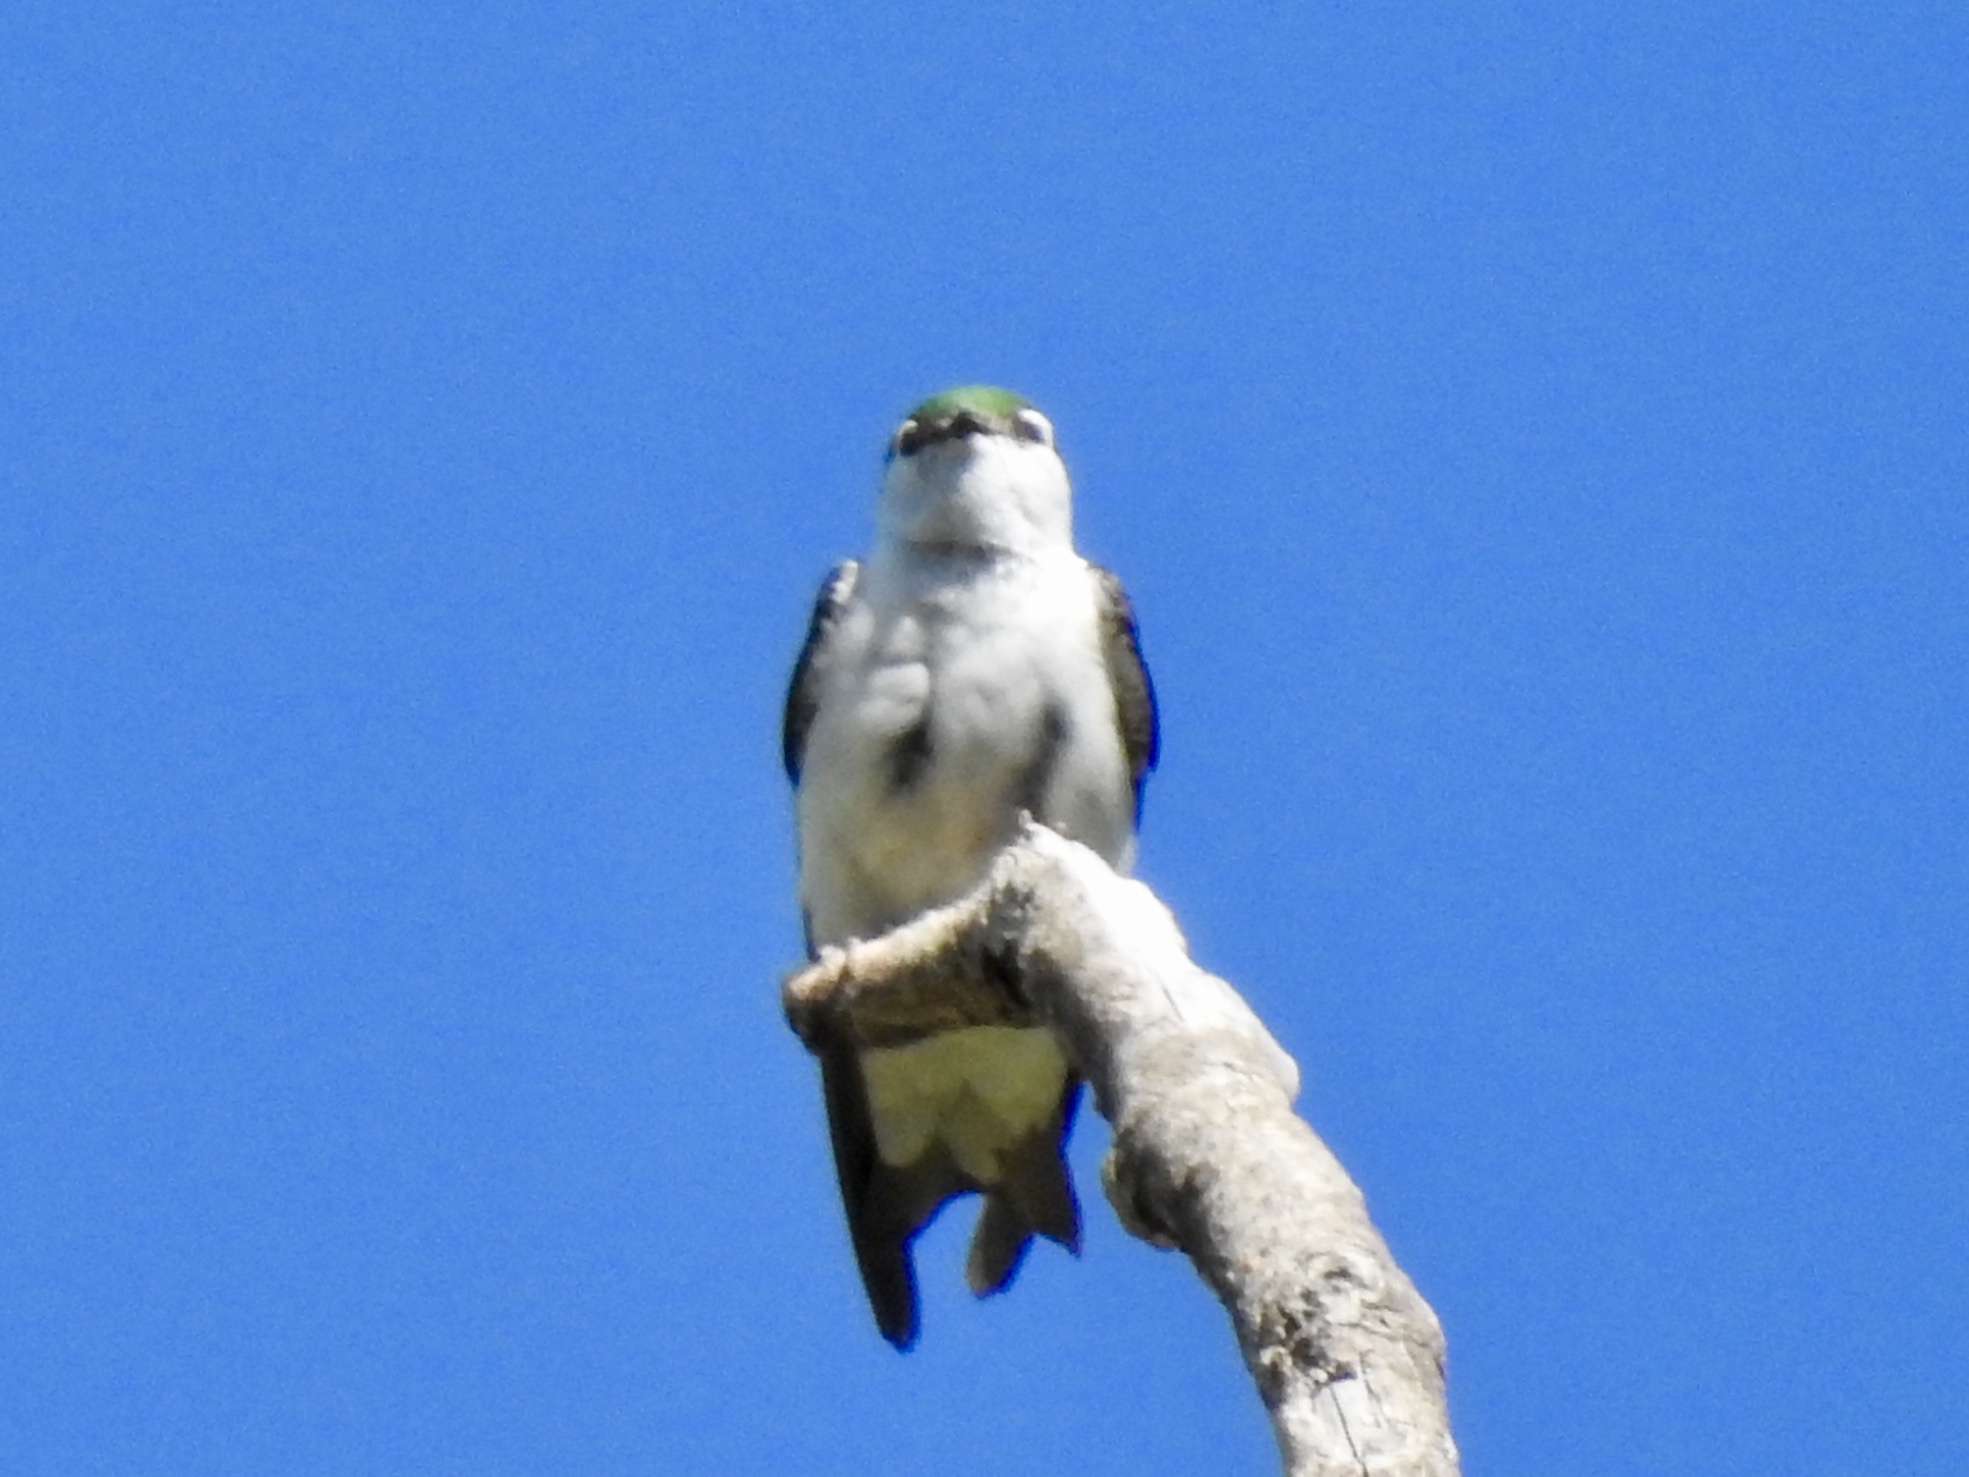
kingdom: Animalia
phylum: Chordata
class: Aves
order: Passeriformes
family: Hirundinidae
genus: Tachycineta
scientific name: Tachycineta thalassina
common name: Violet-green swallow
